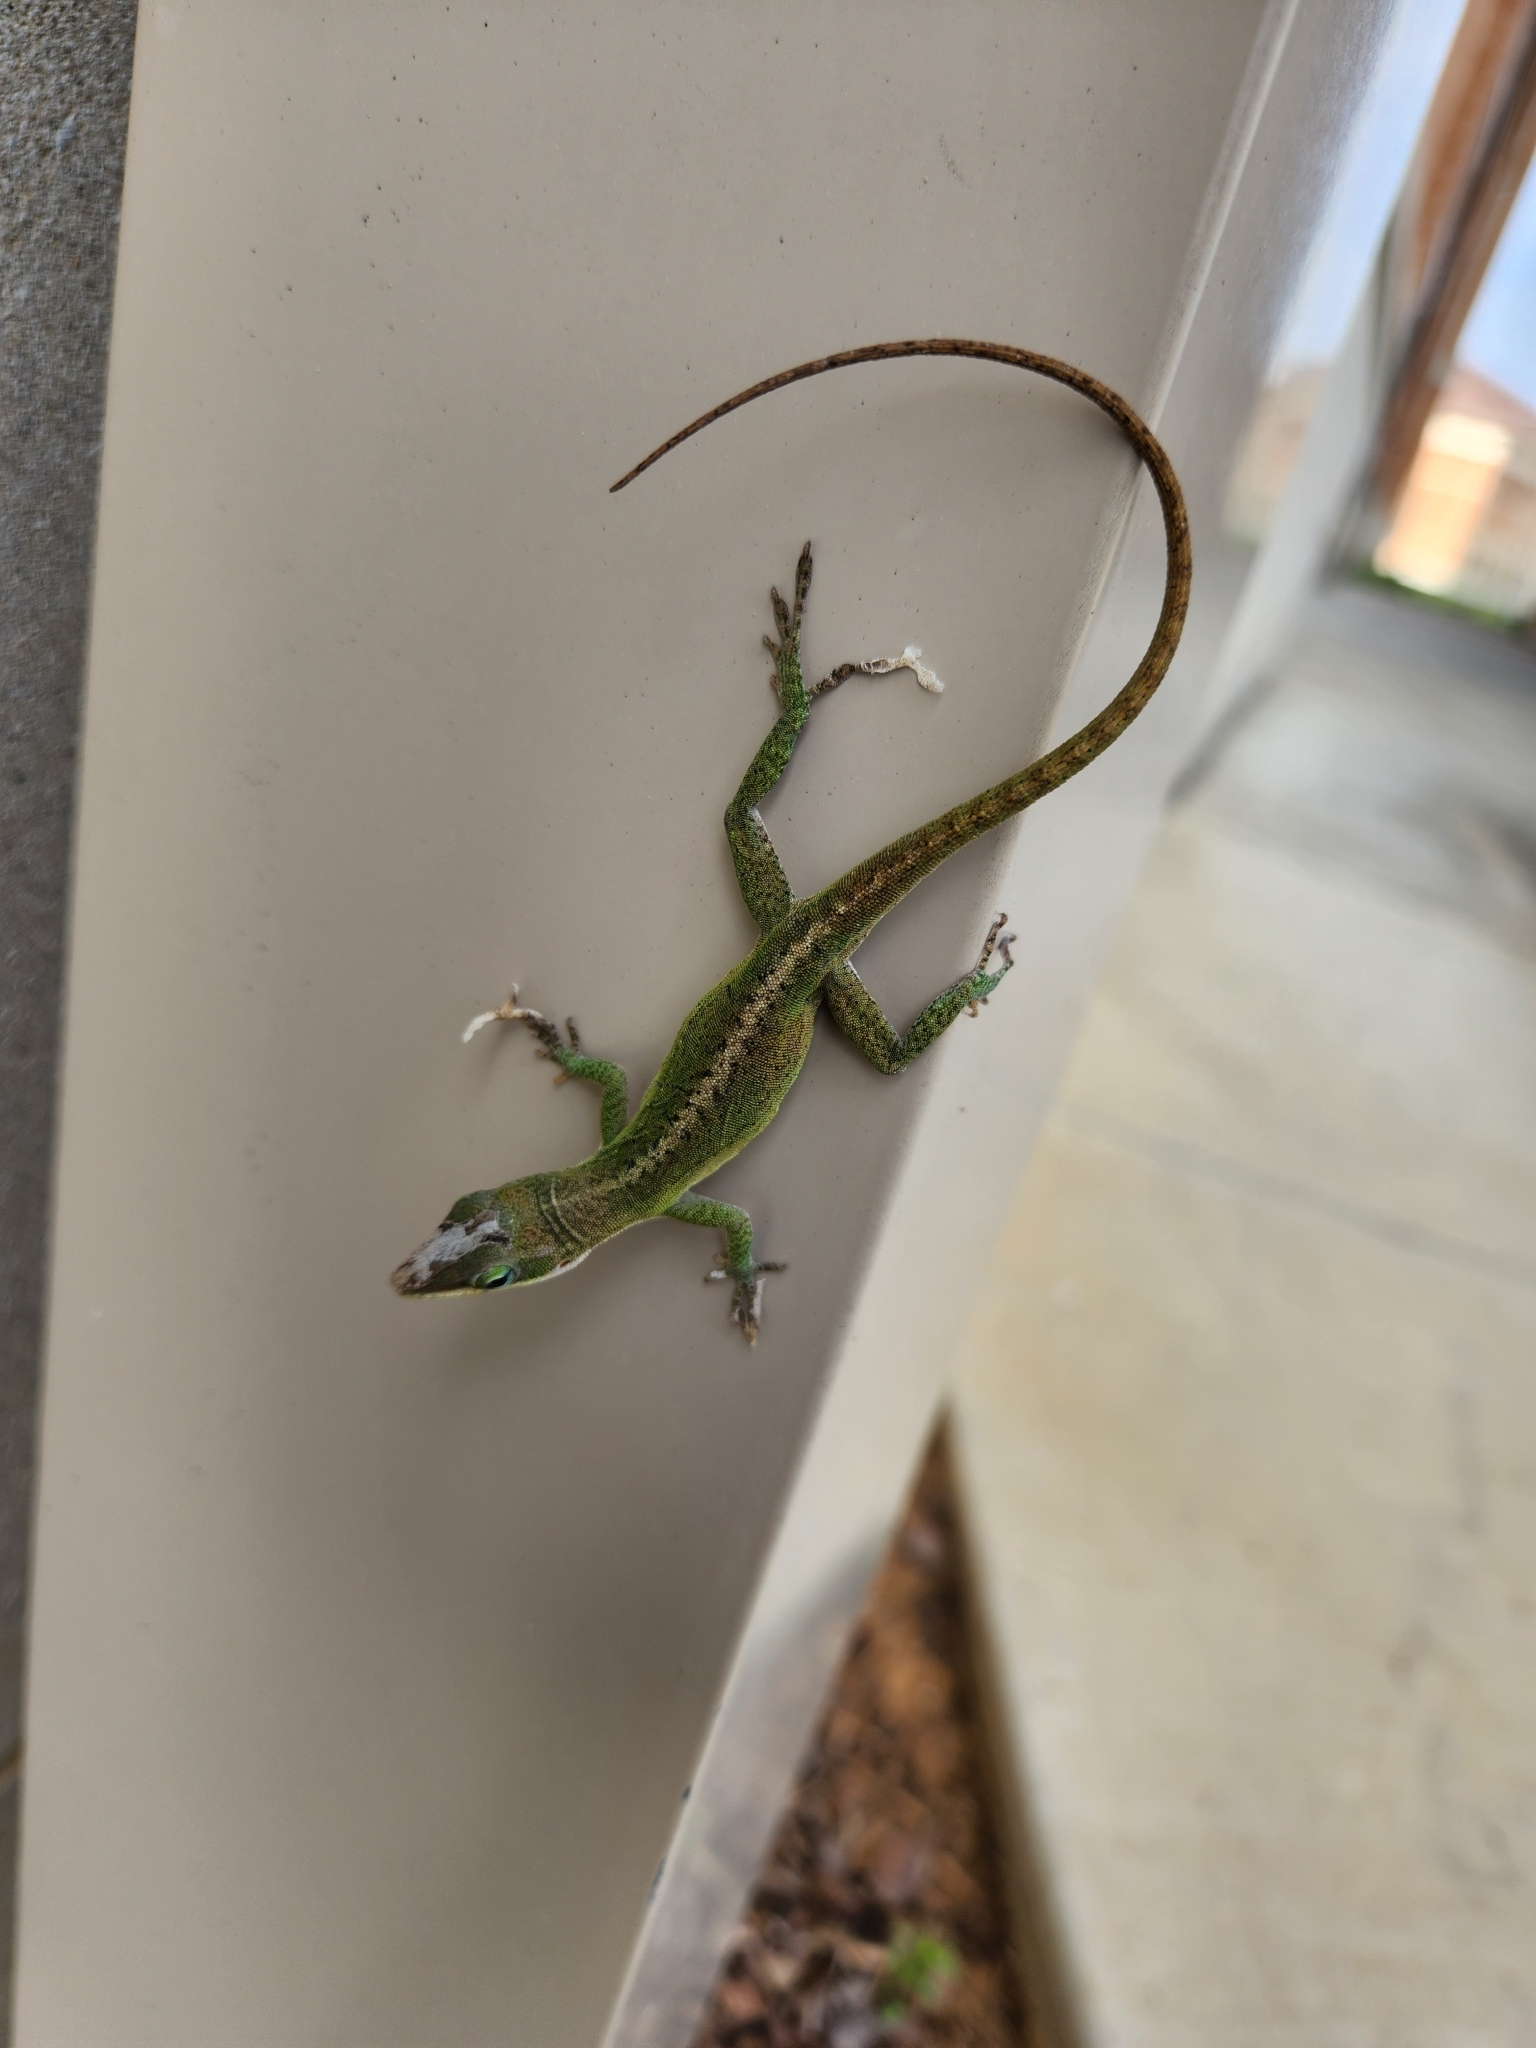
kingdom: Animalia
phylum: Chordata
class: Squamata
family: Dactyloidae
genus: Anolis
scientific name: Anolis carolinensis
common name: Green anole
